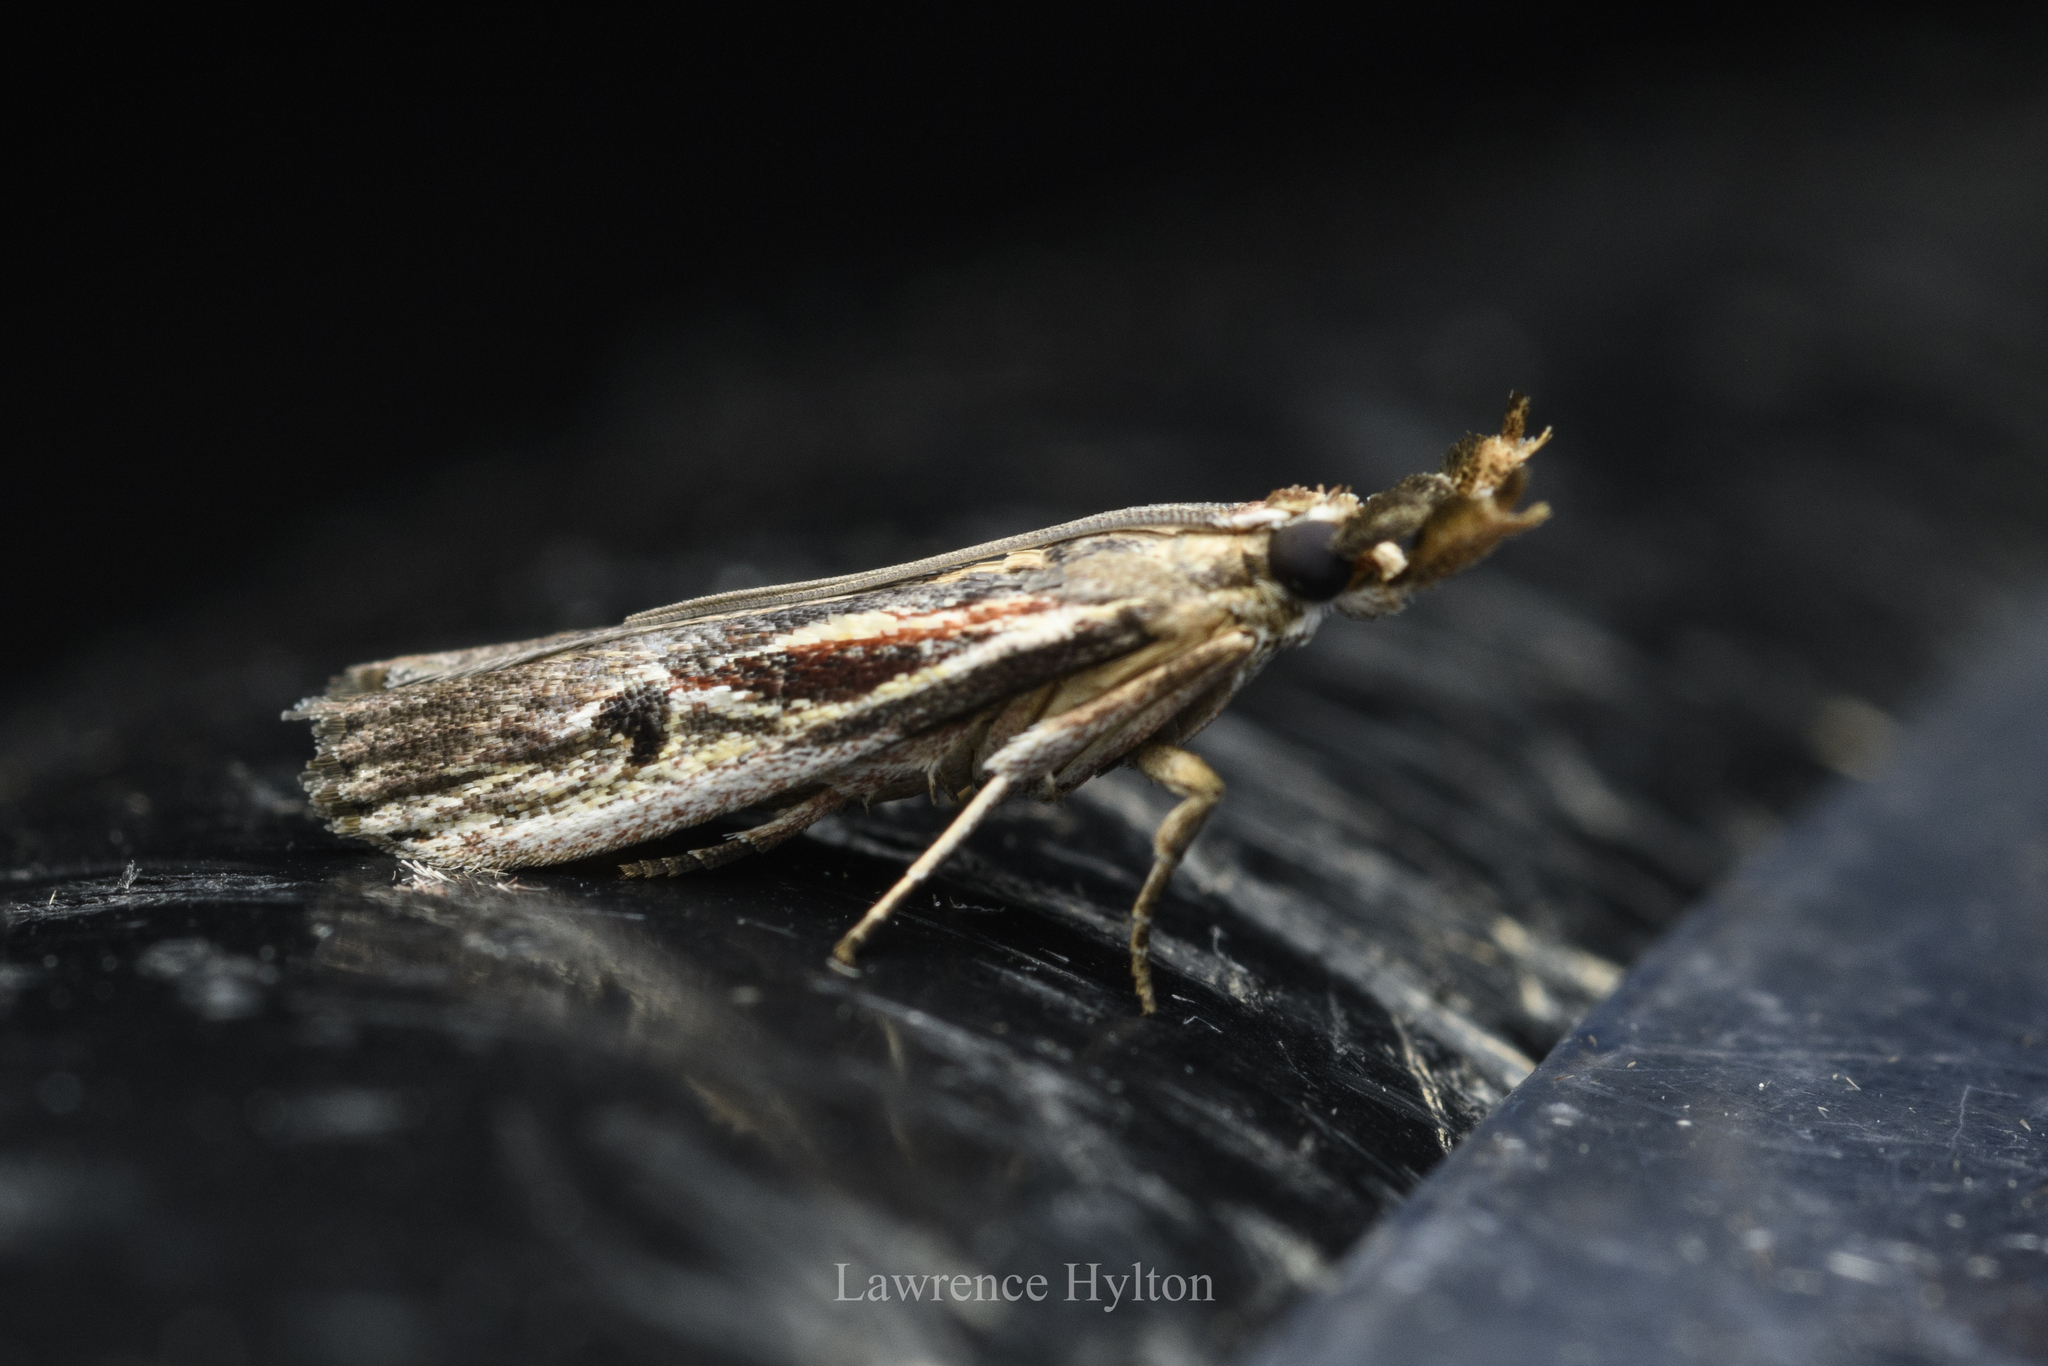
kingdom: Animalia
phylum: Arthropoda
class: Insecta
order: Lepidoptera
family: Pyralidae
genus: Pseudodavara
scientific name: Pseudodavara haemaphoralis
